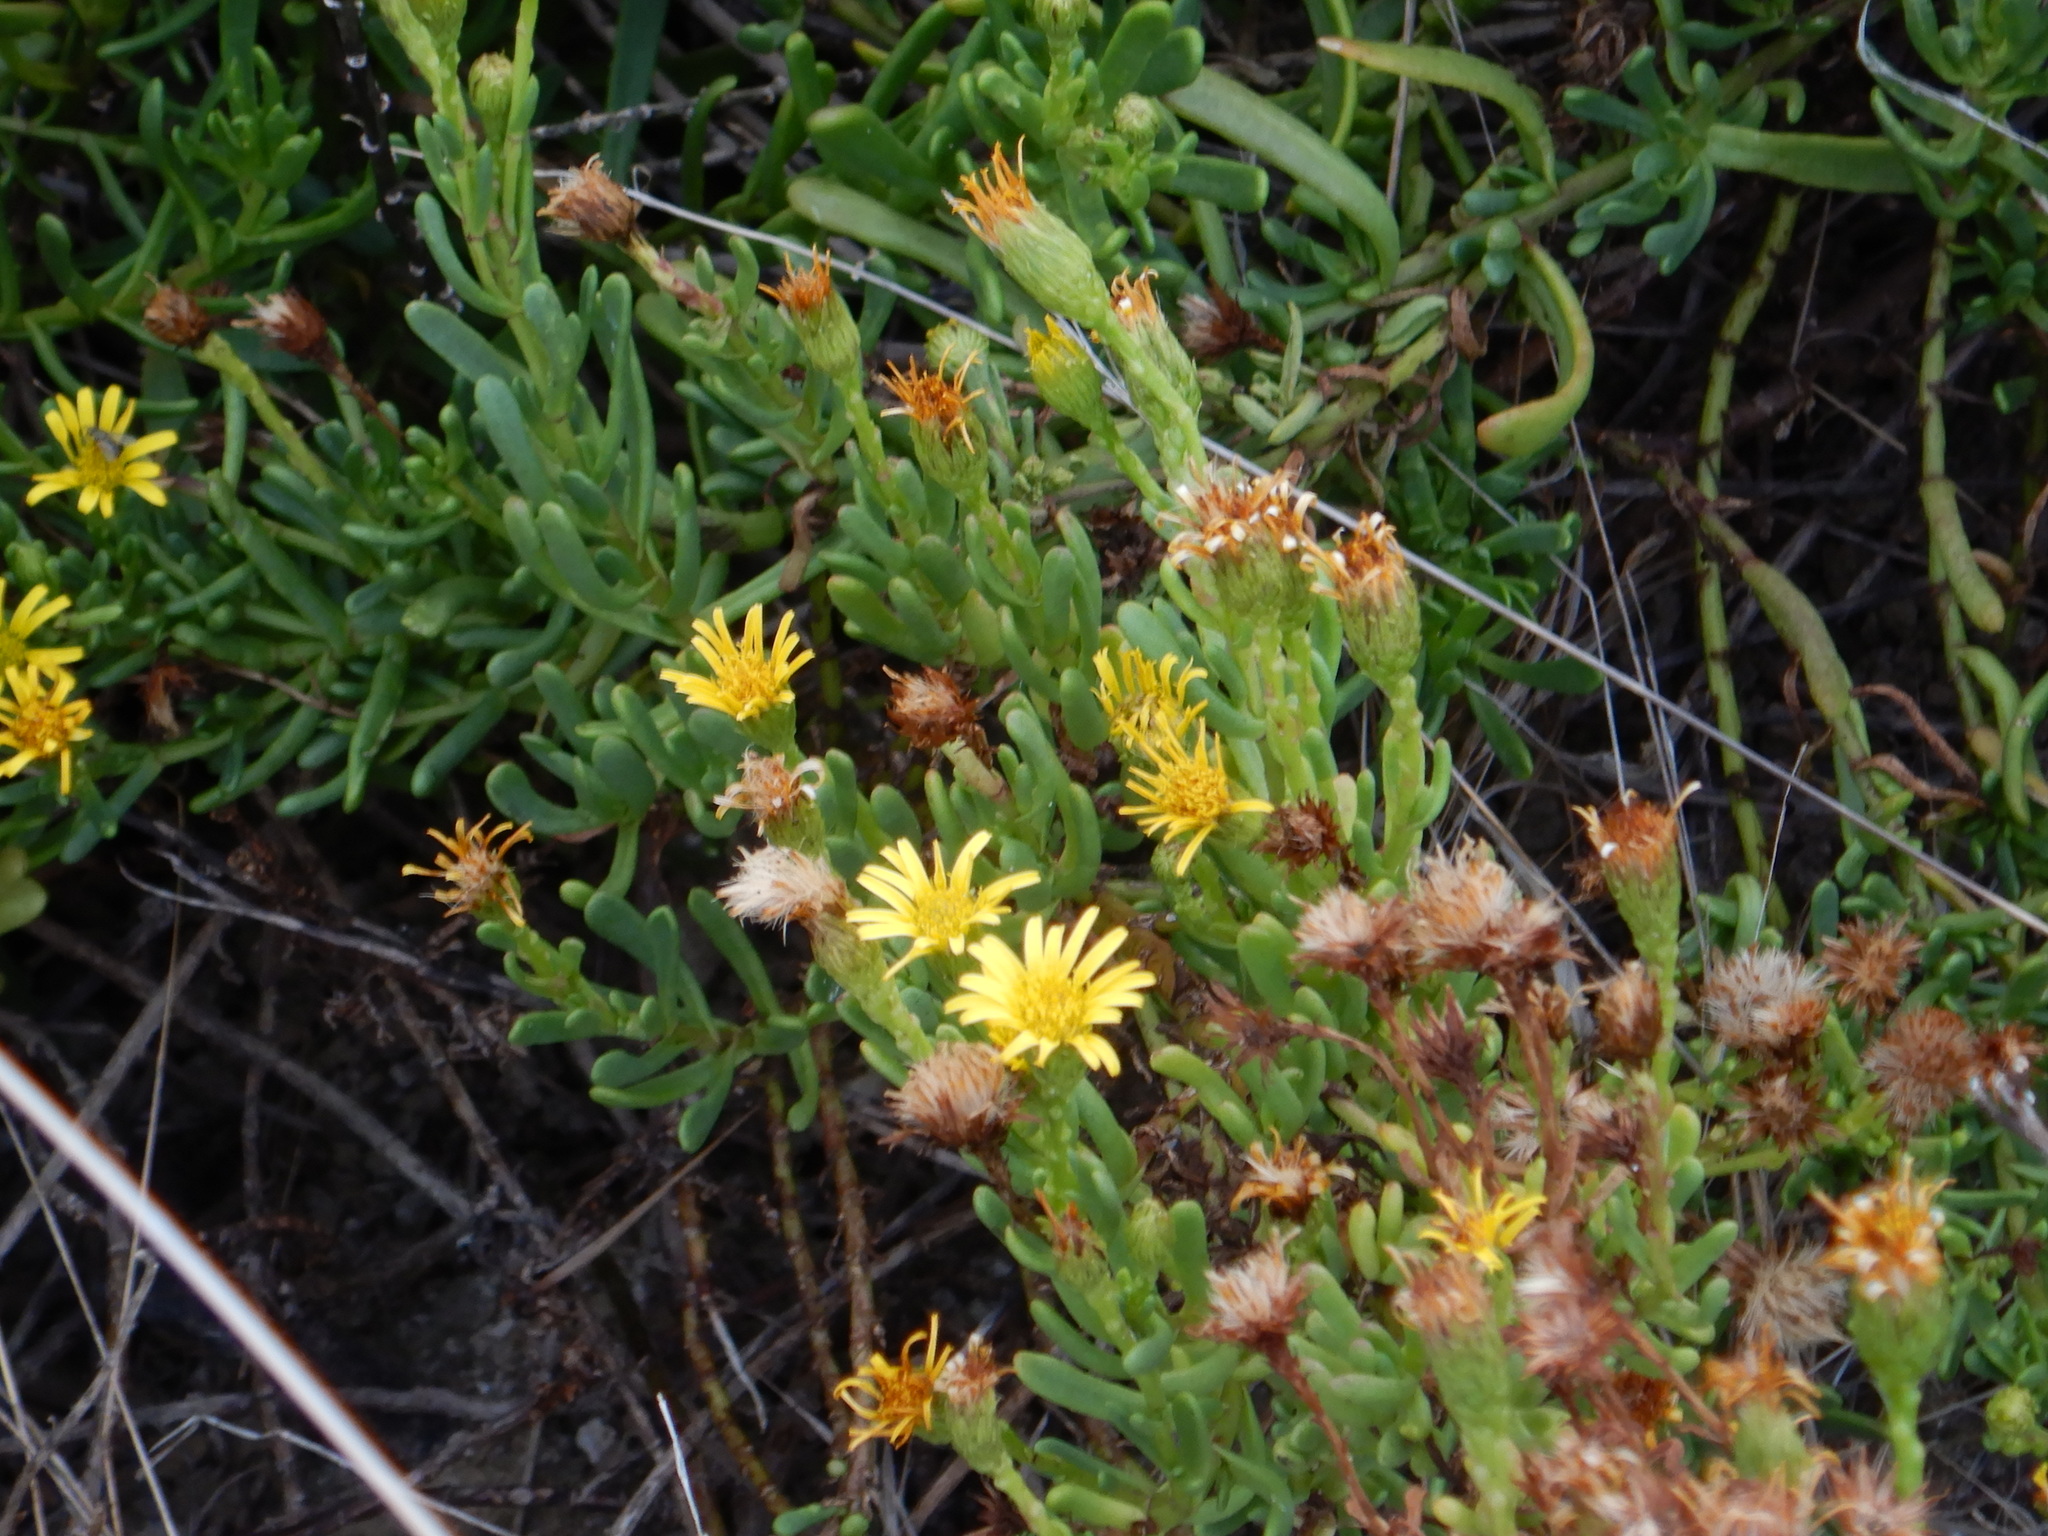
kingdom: Plantae
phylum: Tracheophyta
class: Magnoliopsida
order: Asterales
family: Asteraceae
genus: Limbarda
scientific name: Limbarda crithmoides
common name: Golden samphire
